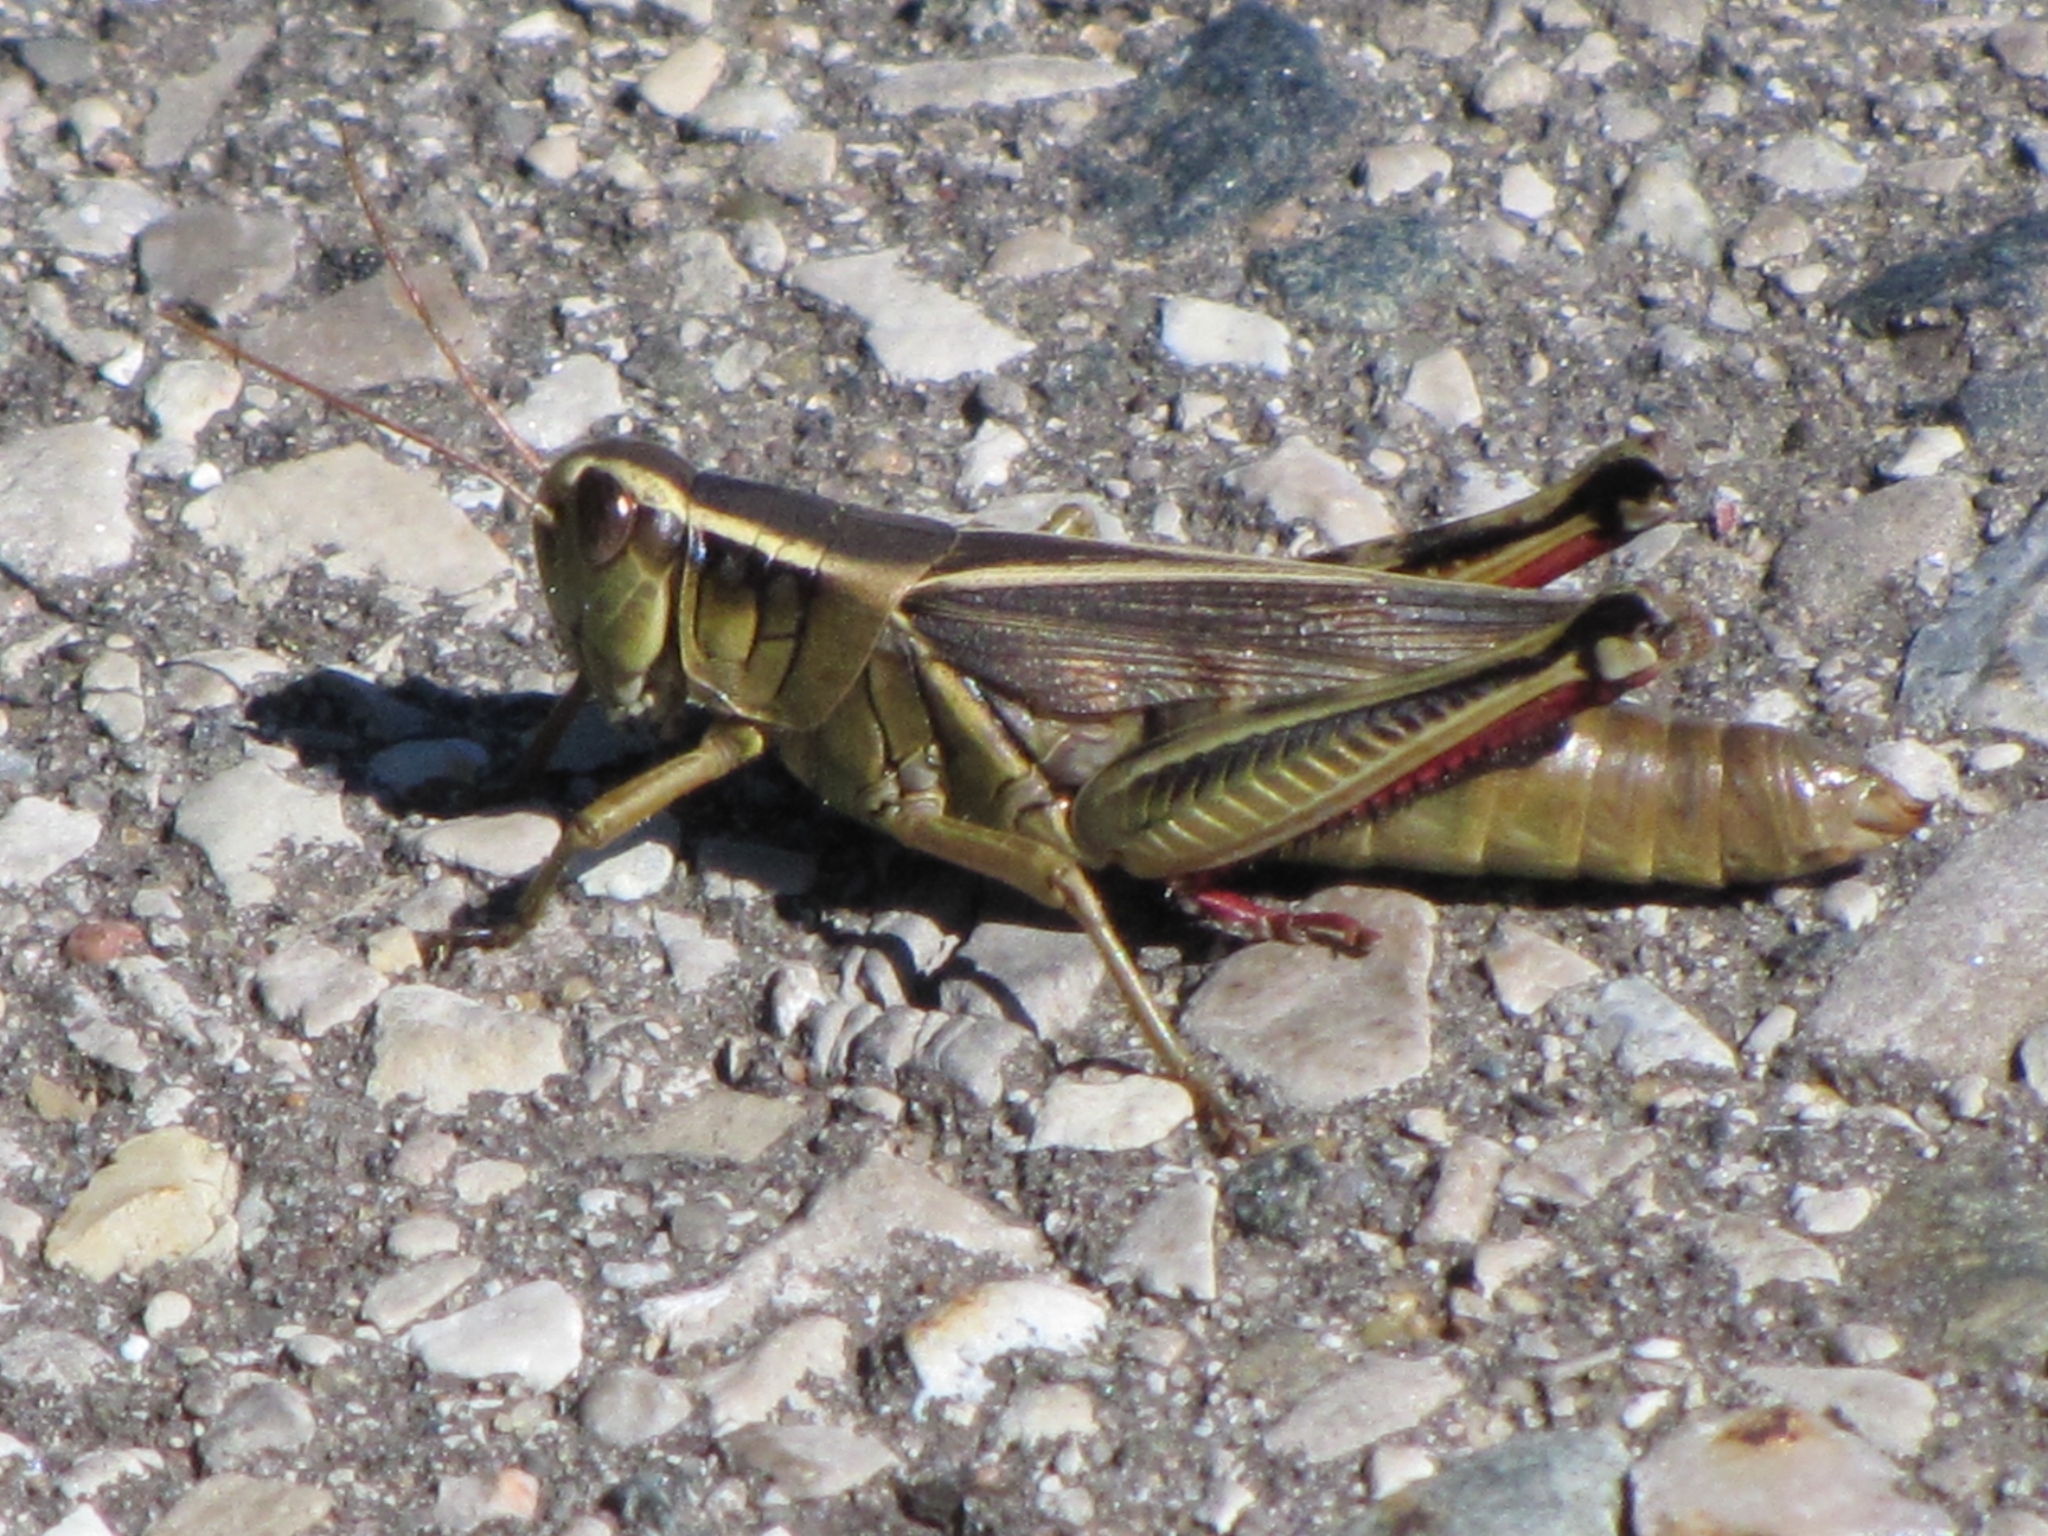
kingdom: Animalia
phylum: Arthropoda
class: Insecta
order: Orthoptera
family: Acrididae
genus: Melanoplus
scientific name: Melanoplus bivittatus
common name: Two-striped grasshopper
